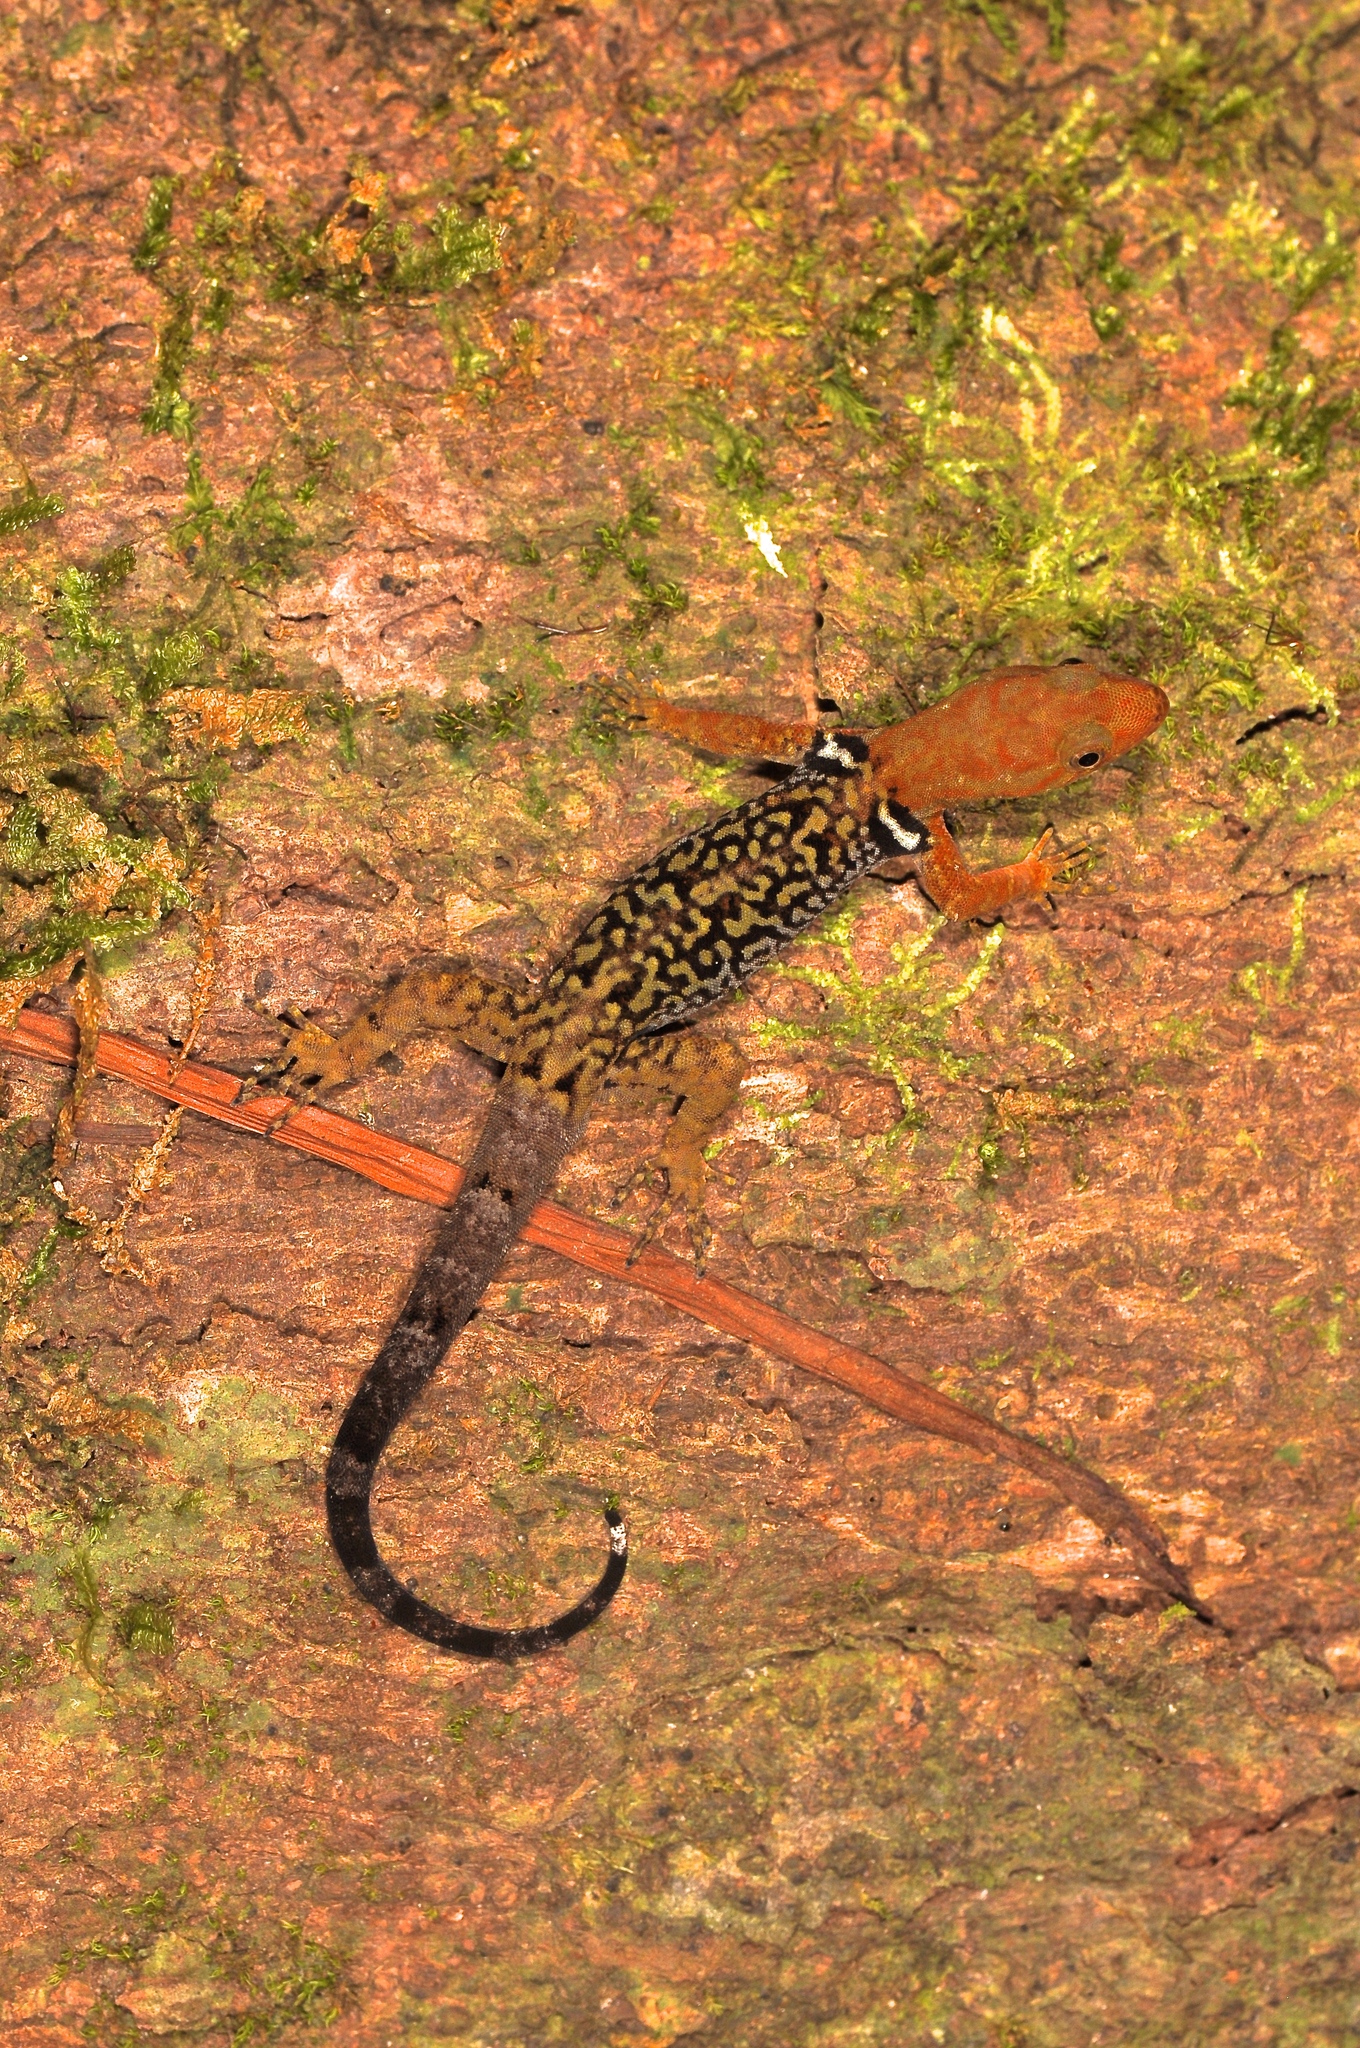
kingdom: Animalia
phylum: Chordata
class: Squamata
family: Sphaerodactylidae
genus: Gonatodes
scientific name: Gonatodes concinnatus
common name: O'shaughnessy's gecko
